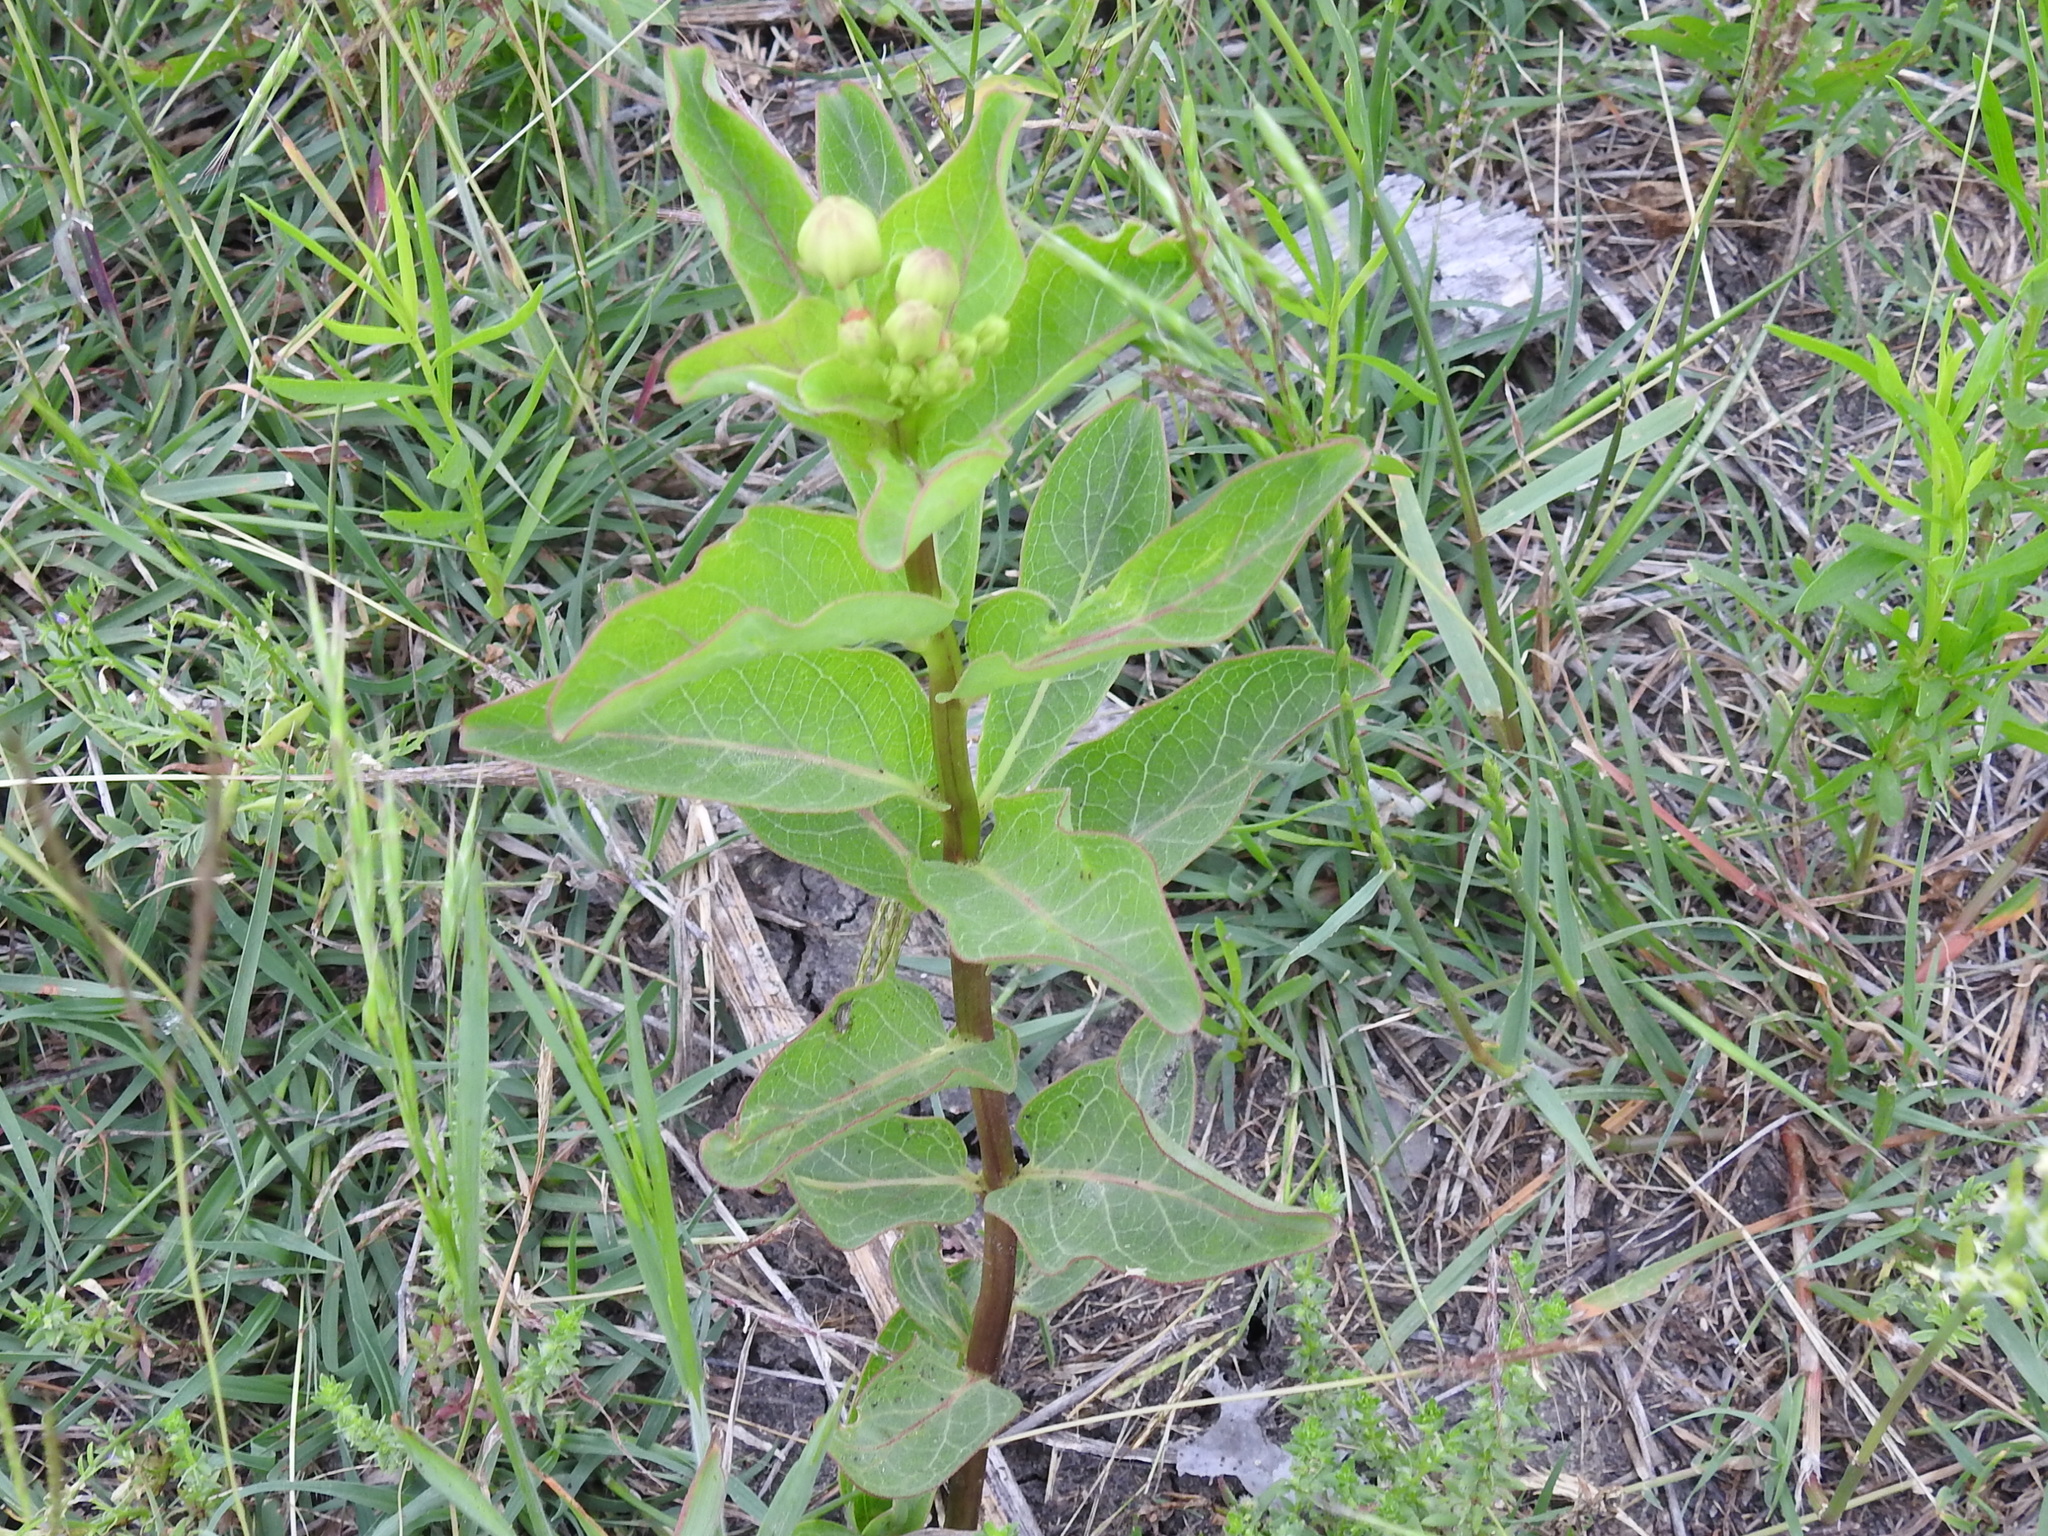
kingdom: Plantae
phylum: Tracheophyta
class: Magnoliopsida
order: Gentianales
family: Apocynaceae
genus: Asclepias
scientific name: Asclepias viridis
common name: Antelope-horns
